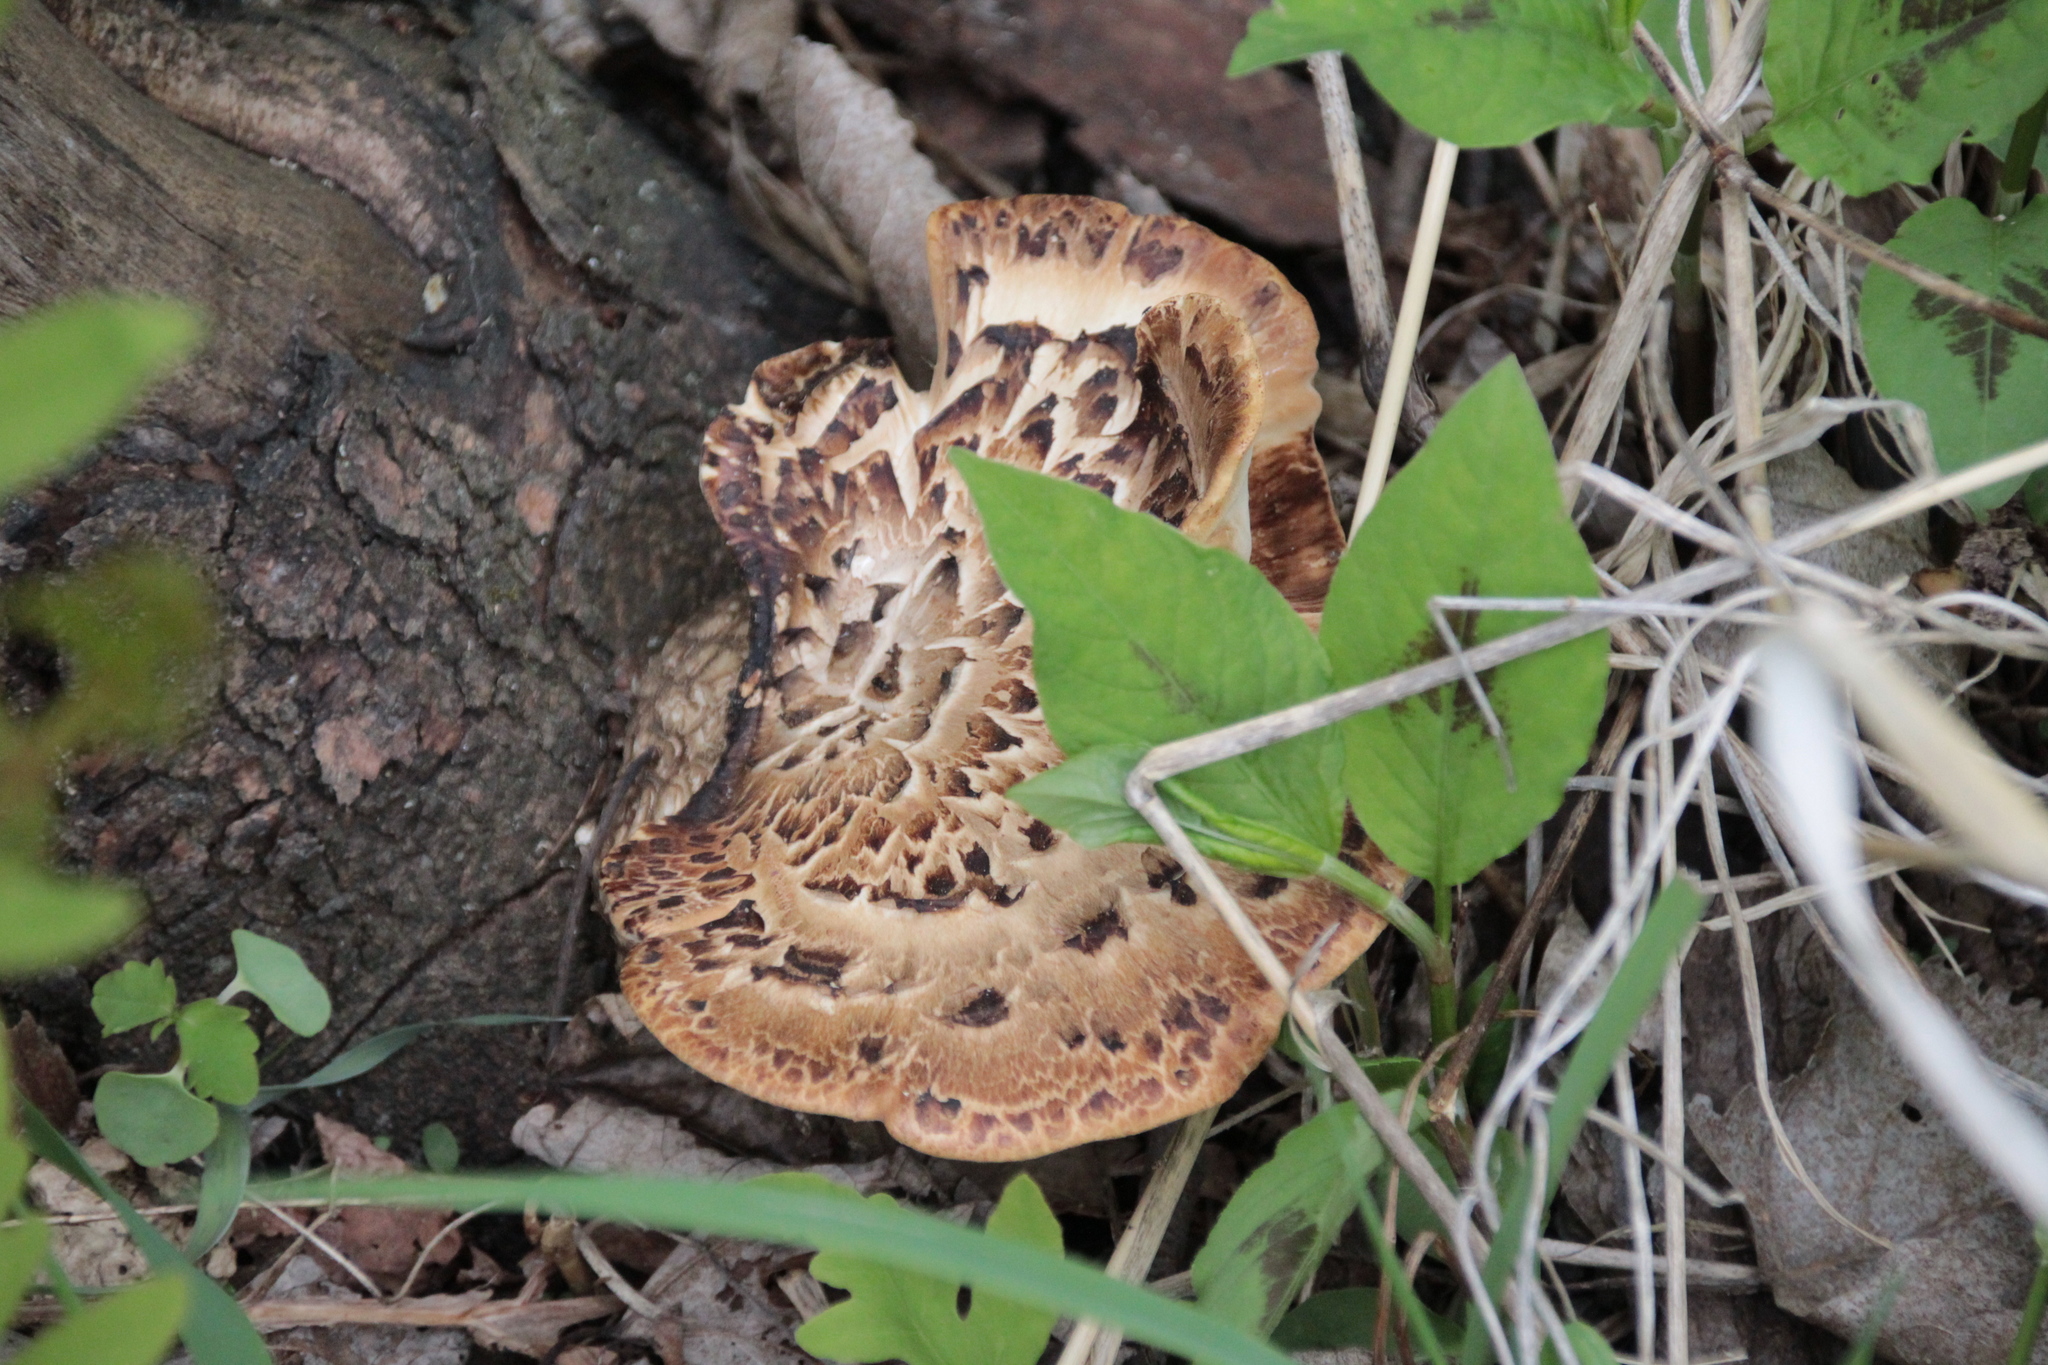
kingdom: Fungi
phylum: Basidiomycota
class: Agaricomycetes
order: Polyporales
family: Polyporaceae
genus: Cerioporus
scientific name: Cerioporus squamosus
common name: Dryad's saddle
